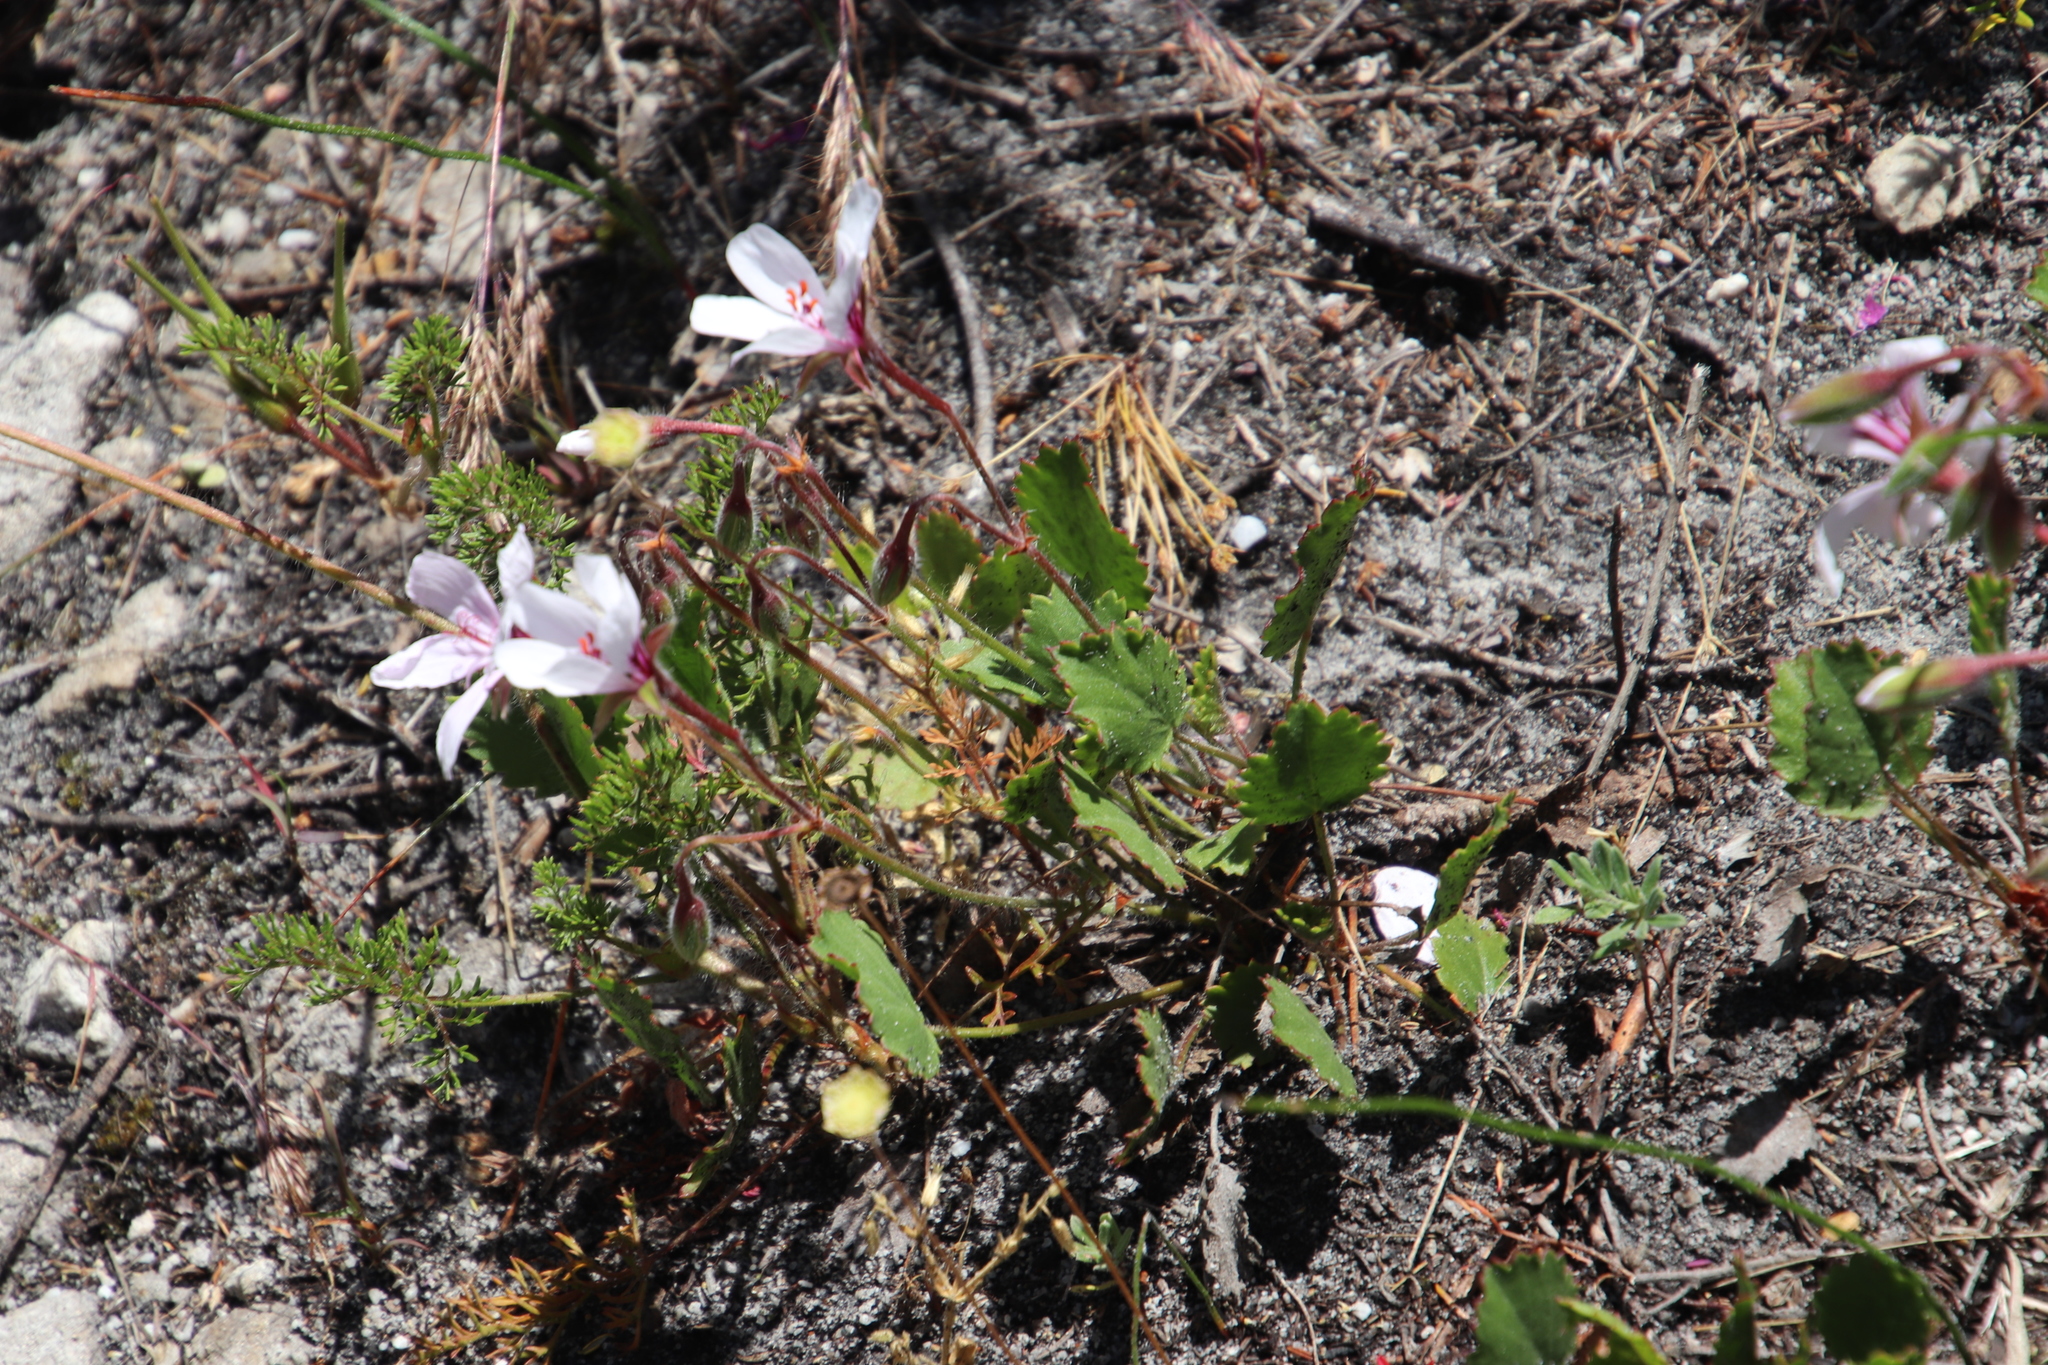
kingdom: Plantae
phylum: Tracheophyta
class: Magnoliopsida
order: Geraniales
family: Geraniaceae
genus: Pelargonium
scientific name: Pelargonium elegans
